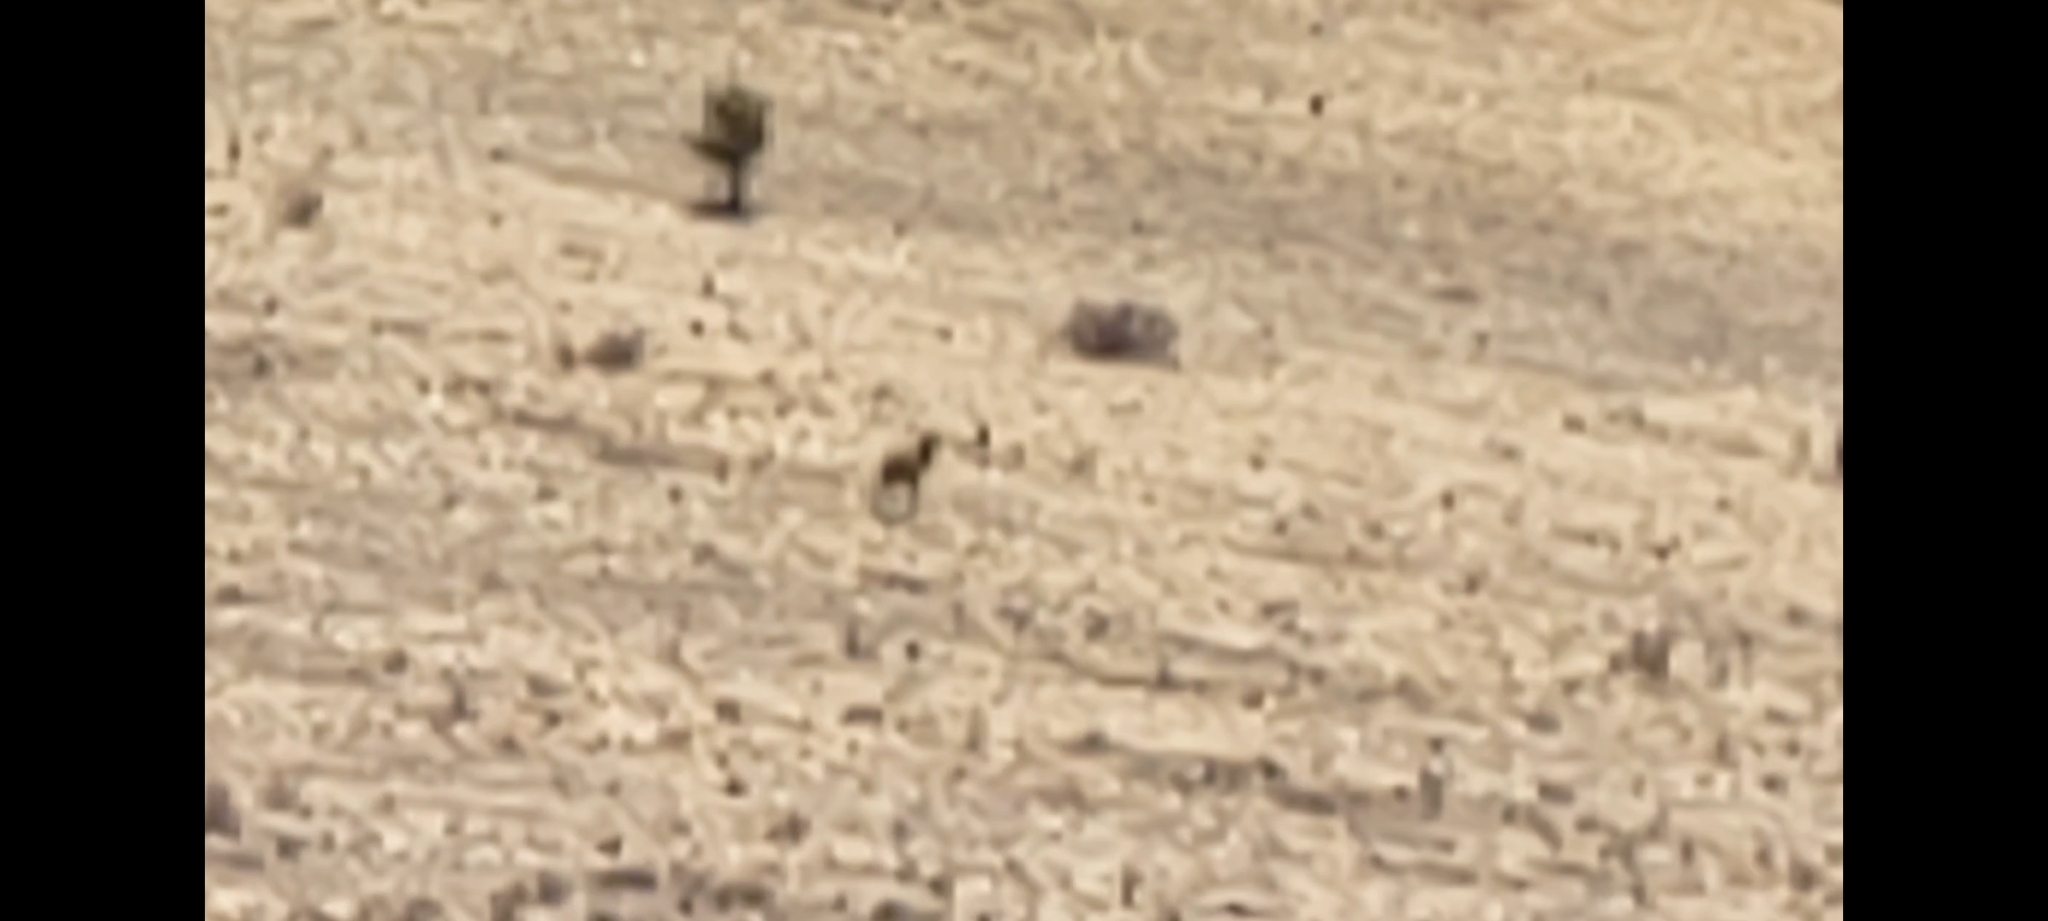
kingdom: Animalia
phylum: Chordata
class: Mammalia
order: Artiodactyla
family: Cervidae
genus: Cervus
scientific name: Cervus elaphus
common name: Red deer
